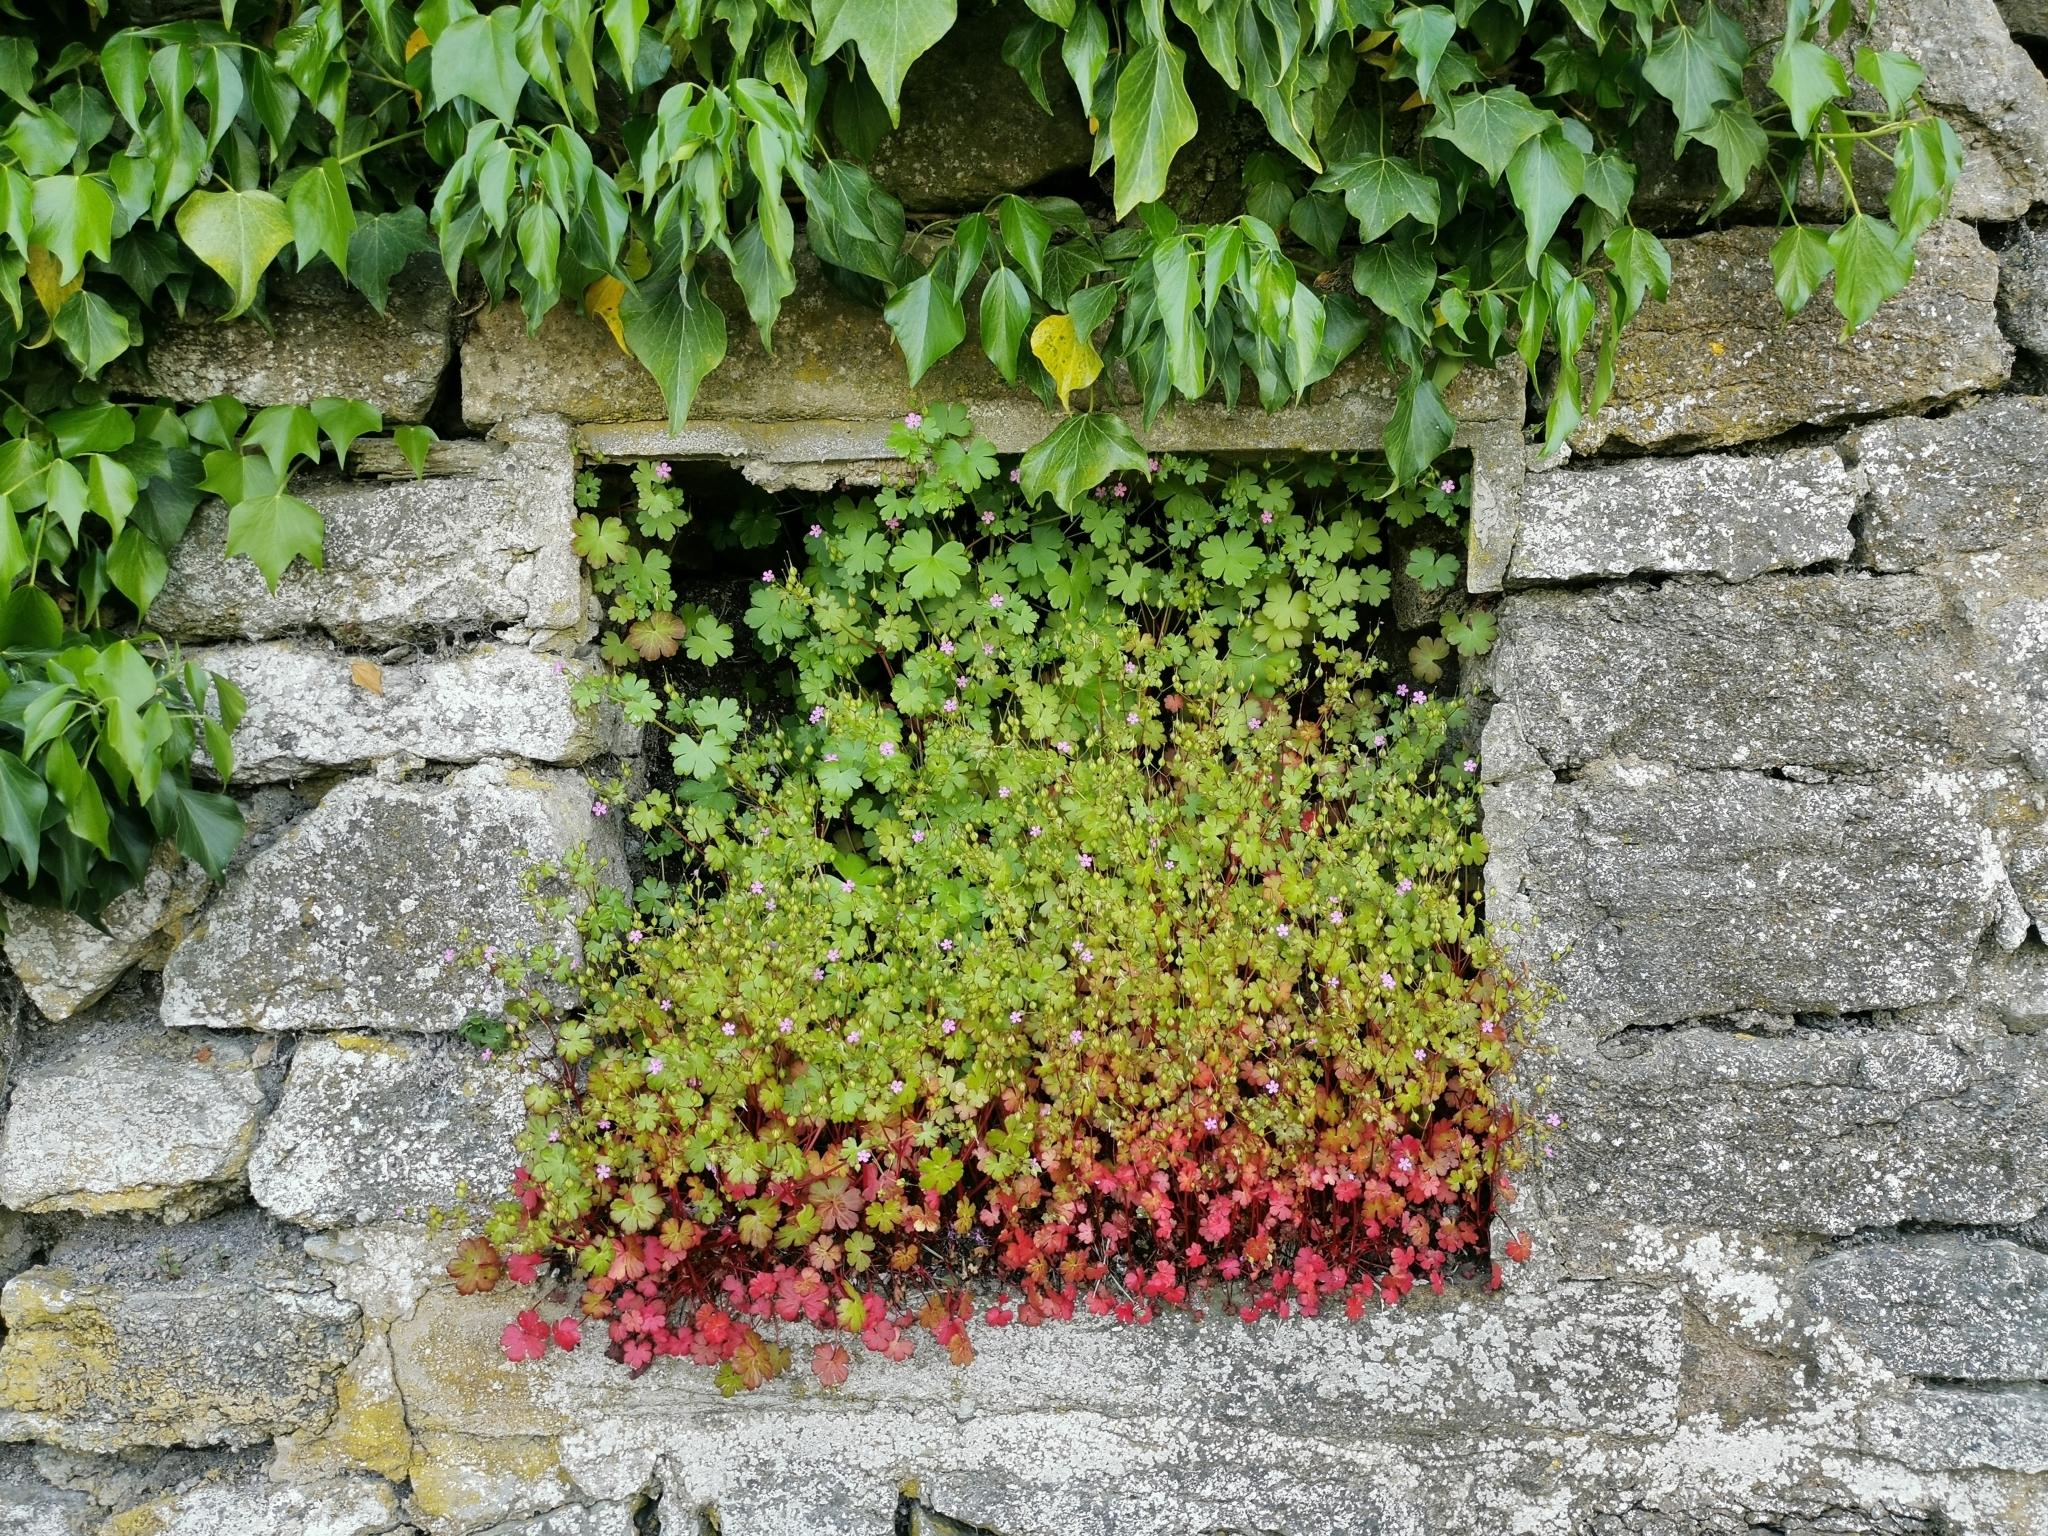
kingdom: Plantae
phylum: Tracheophyta
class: Magnoliopsida
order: Geraniales
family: Geraniaceae
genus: Geranium
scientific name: Geranium lucidum
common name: Shining crane's-bill
